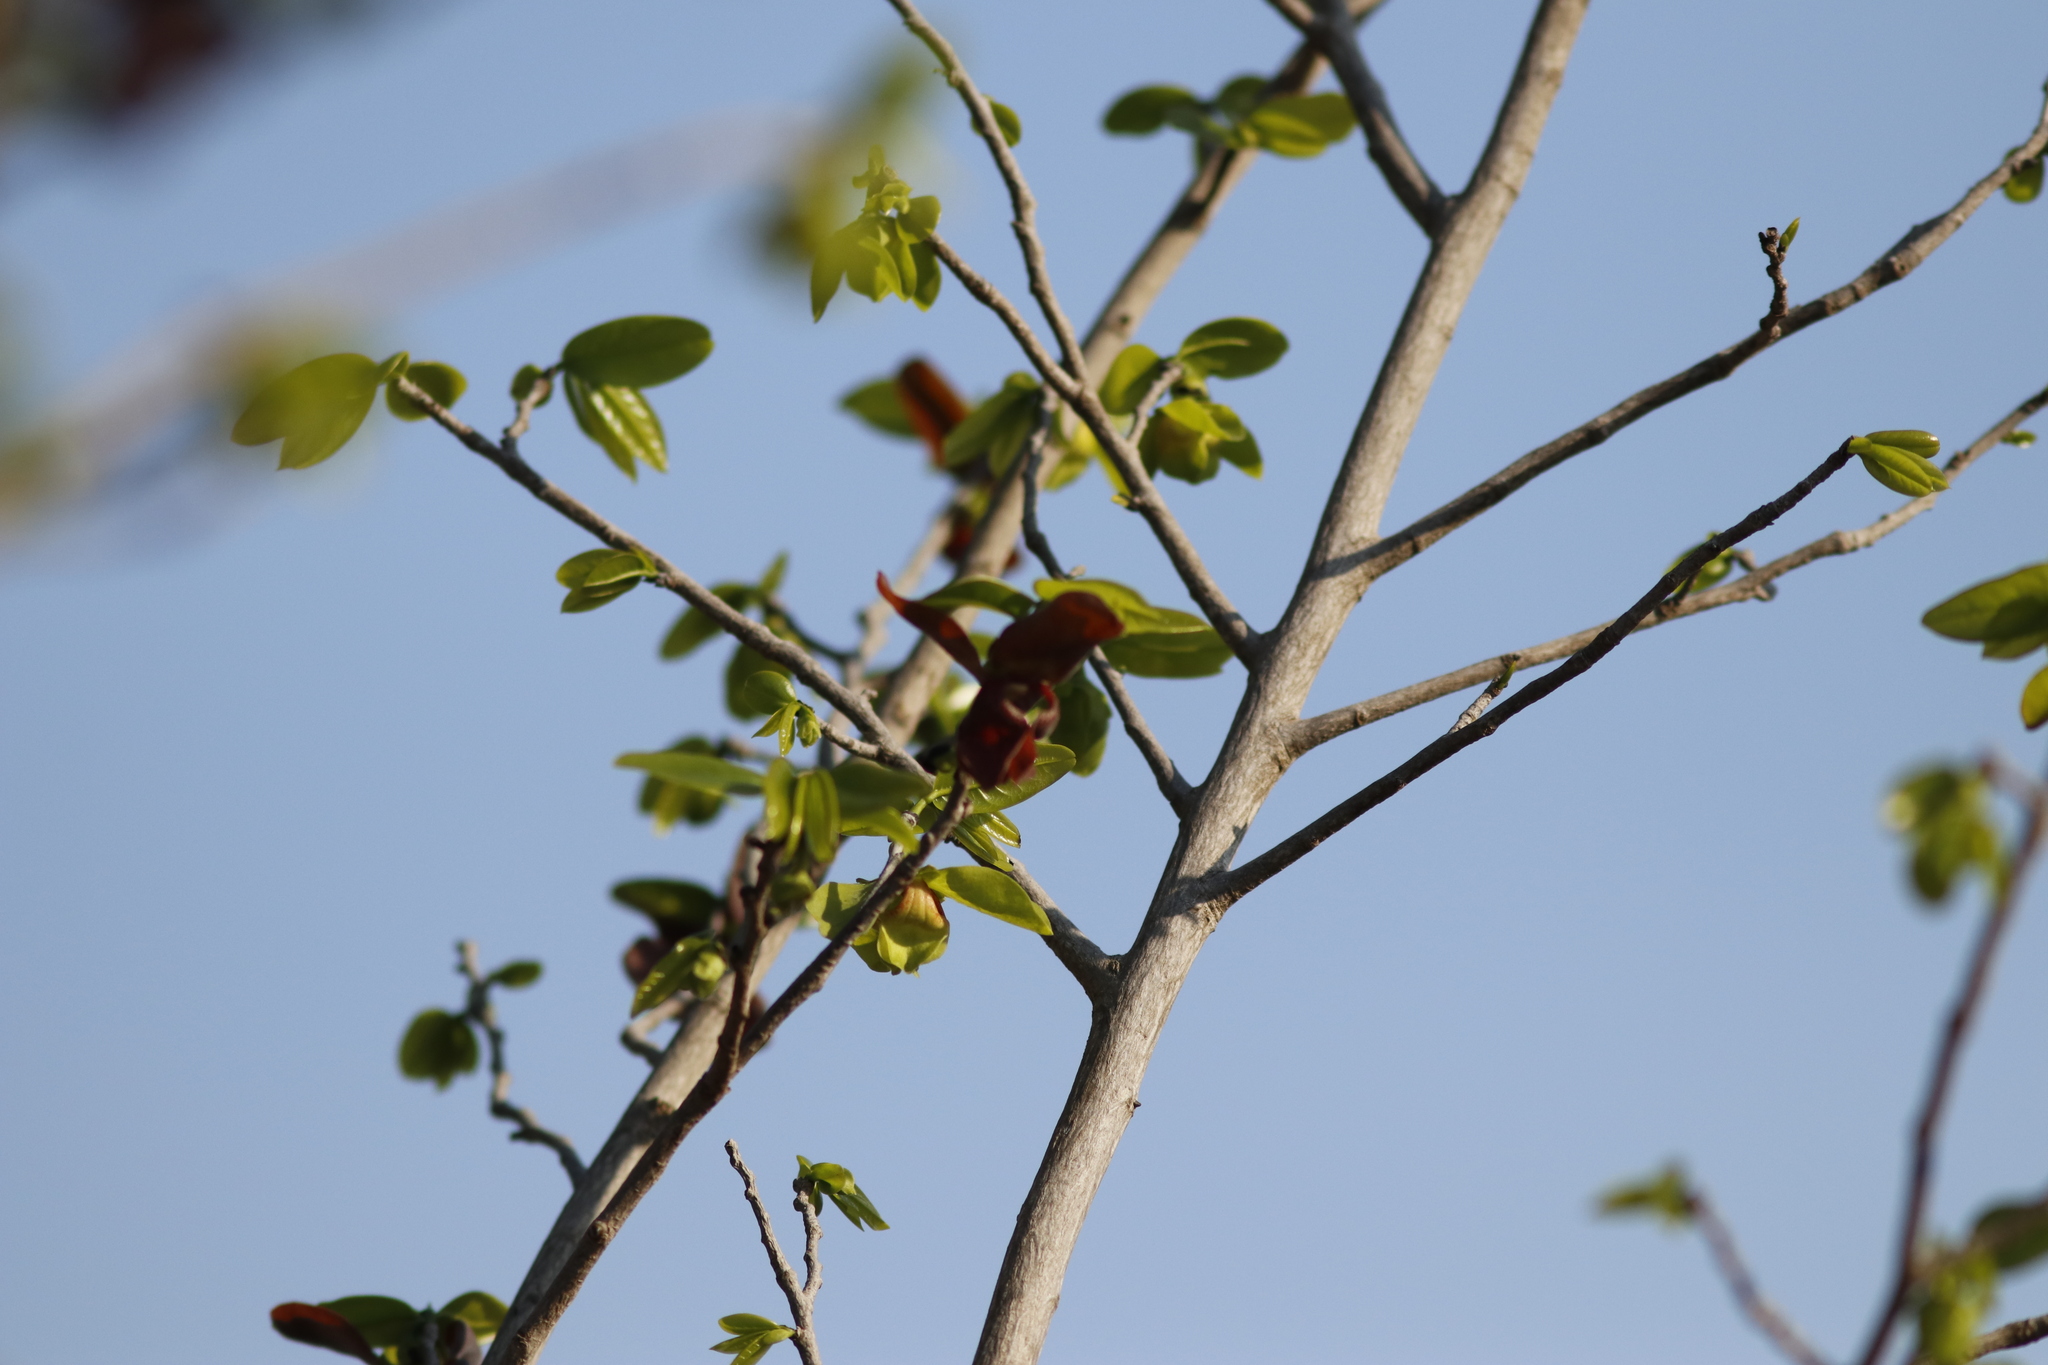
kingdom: Plantae
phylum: Tracheophyta
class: Magnoliopsida
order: Magnoliales
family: Annonaceae
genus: Monodora
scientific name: Monodora junodii
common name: Green-apple
